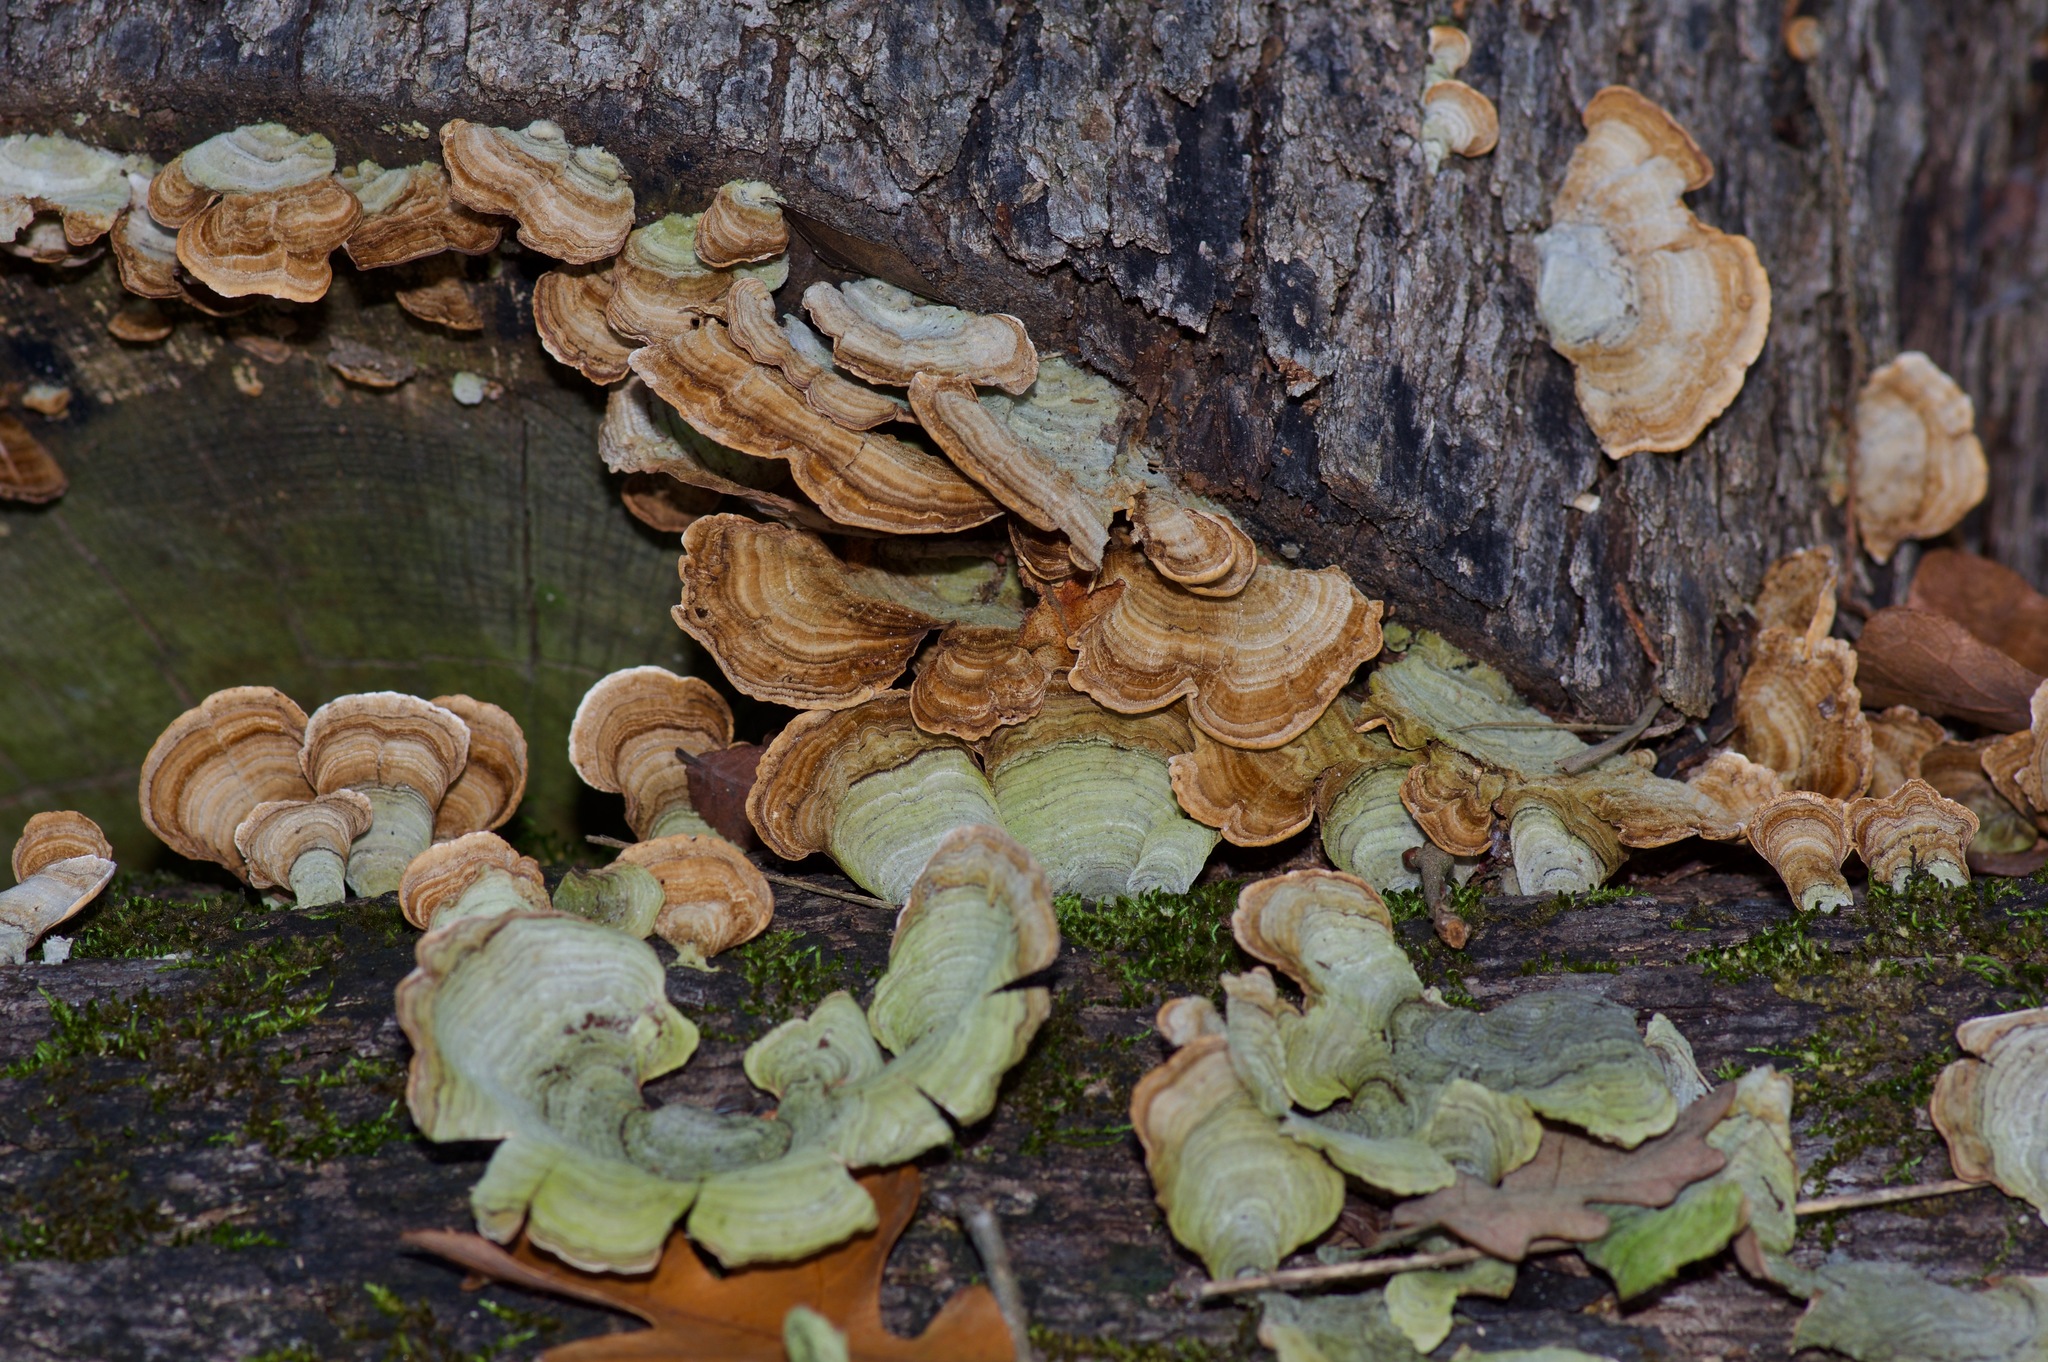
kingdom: Fungi
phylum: Basidiomycota
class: Agaricomycetes
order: Russulales
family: Stereaceae
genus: Stereum
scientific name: Stereum ostrea
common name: False turkeytail
